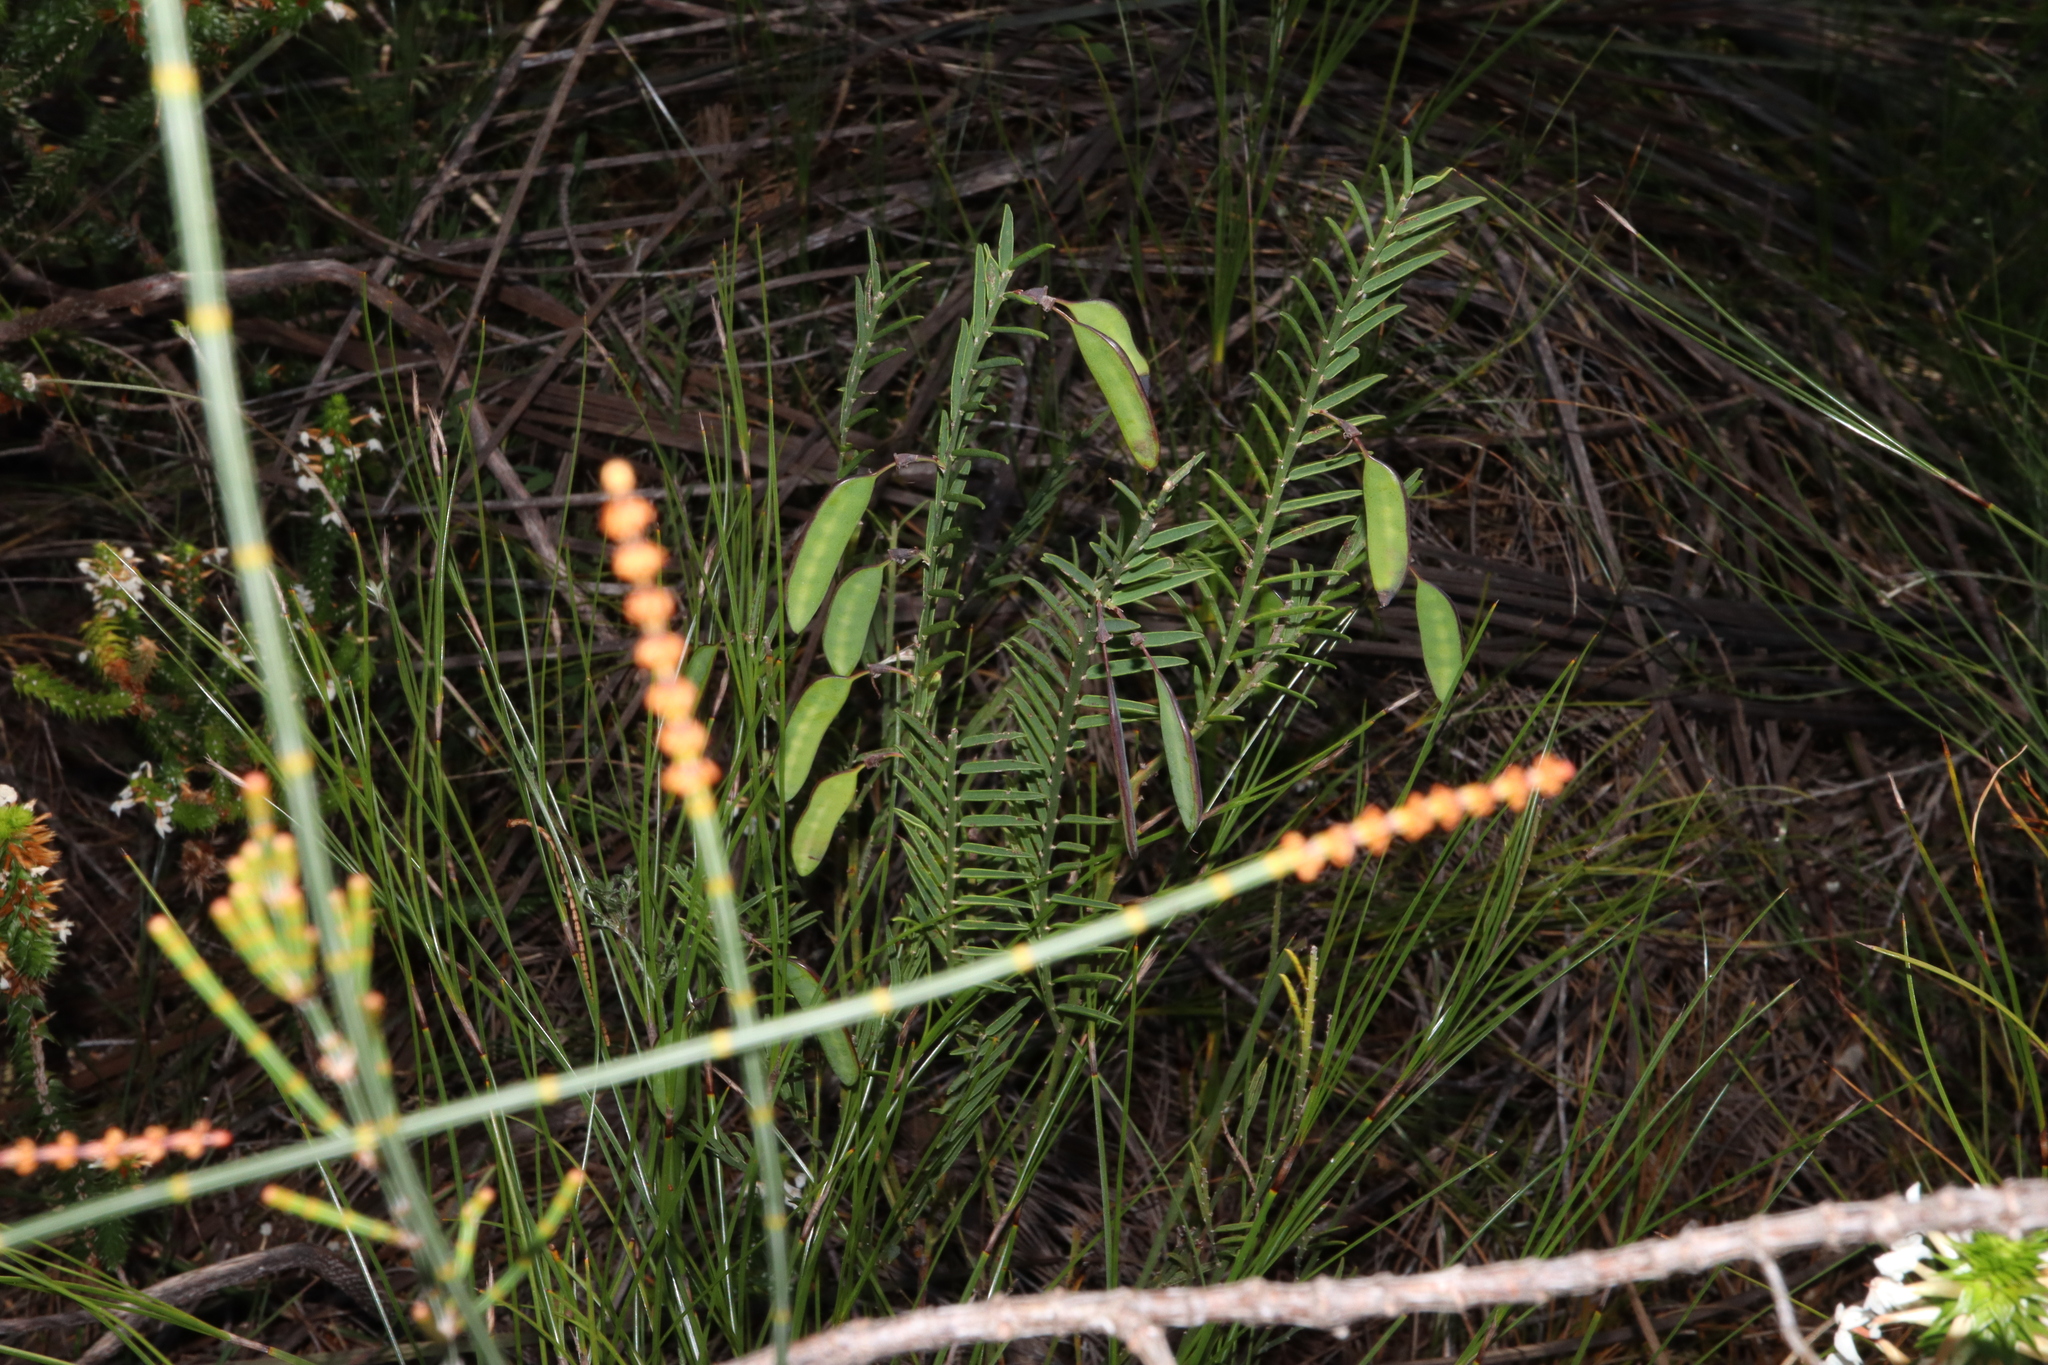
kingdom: Plantae
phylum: Tracheophyta
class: Magnoliopsida
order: Fabales
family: Fabaceae
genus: Bossiaea
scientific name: Bossiaea heterophylla
